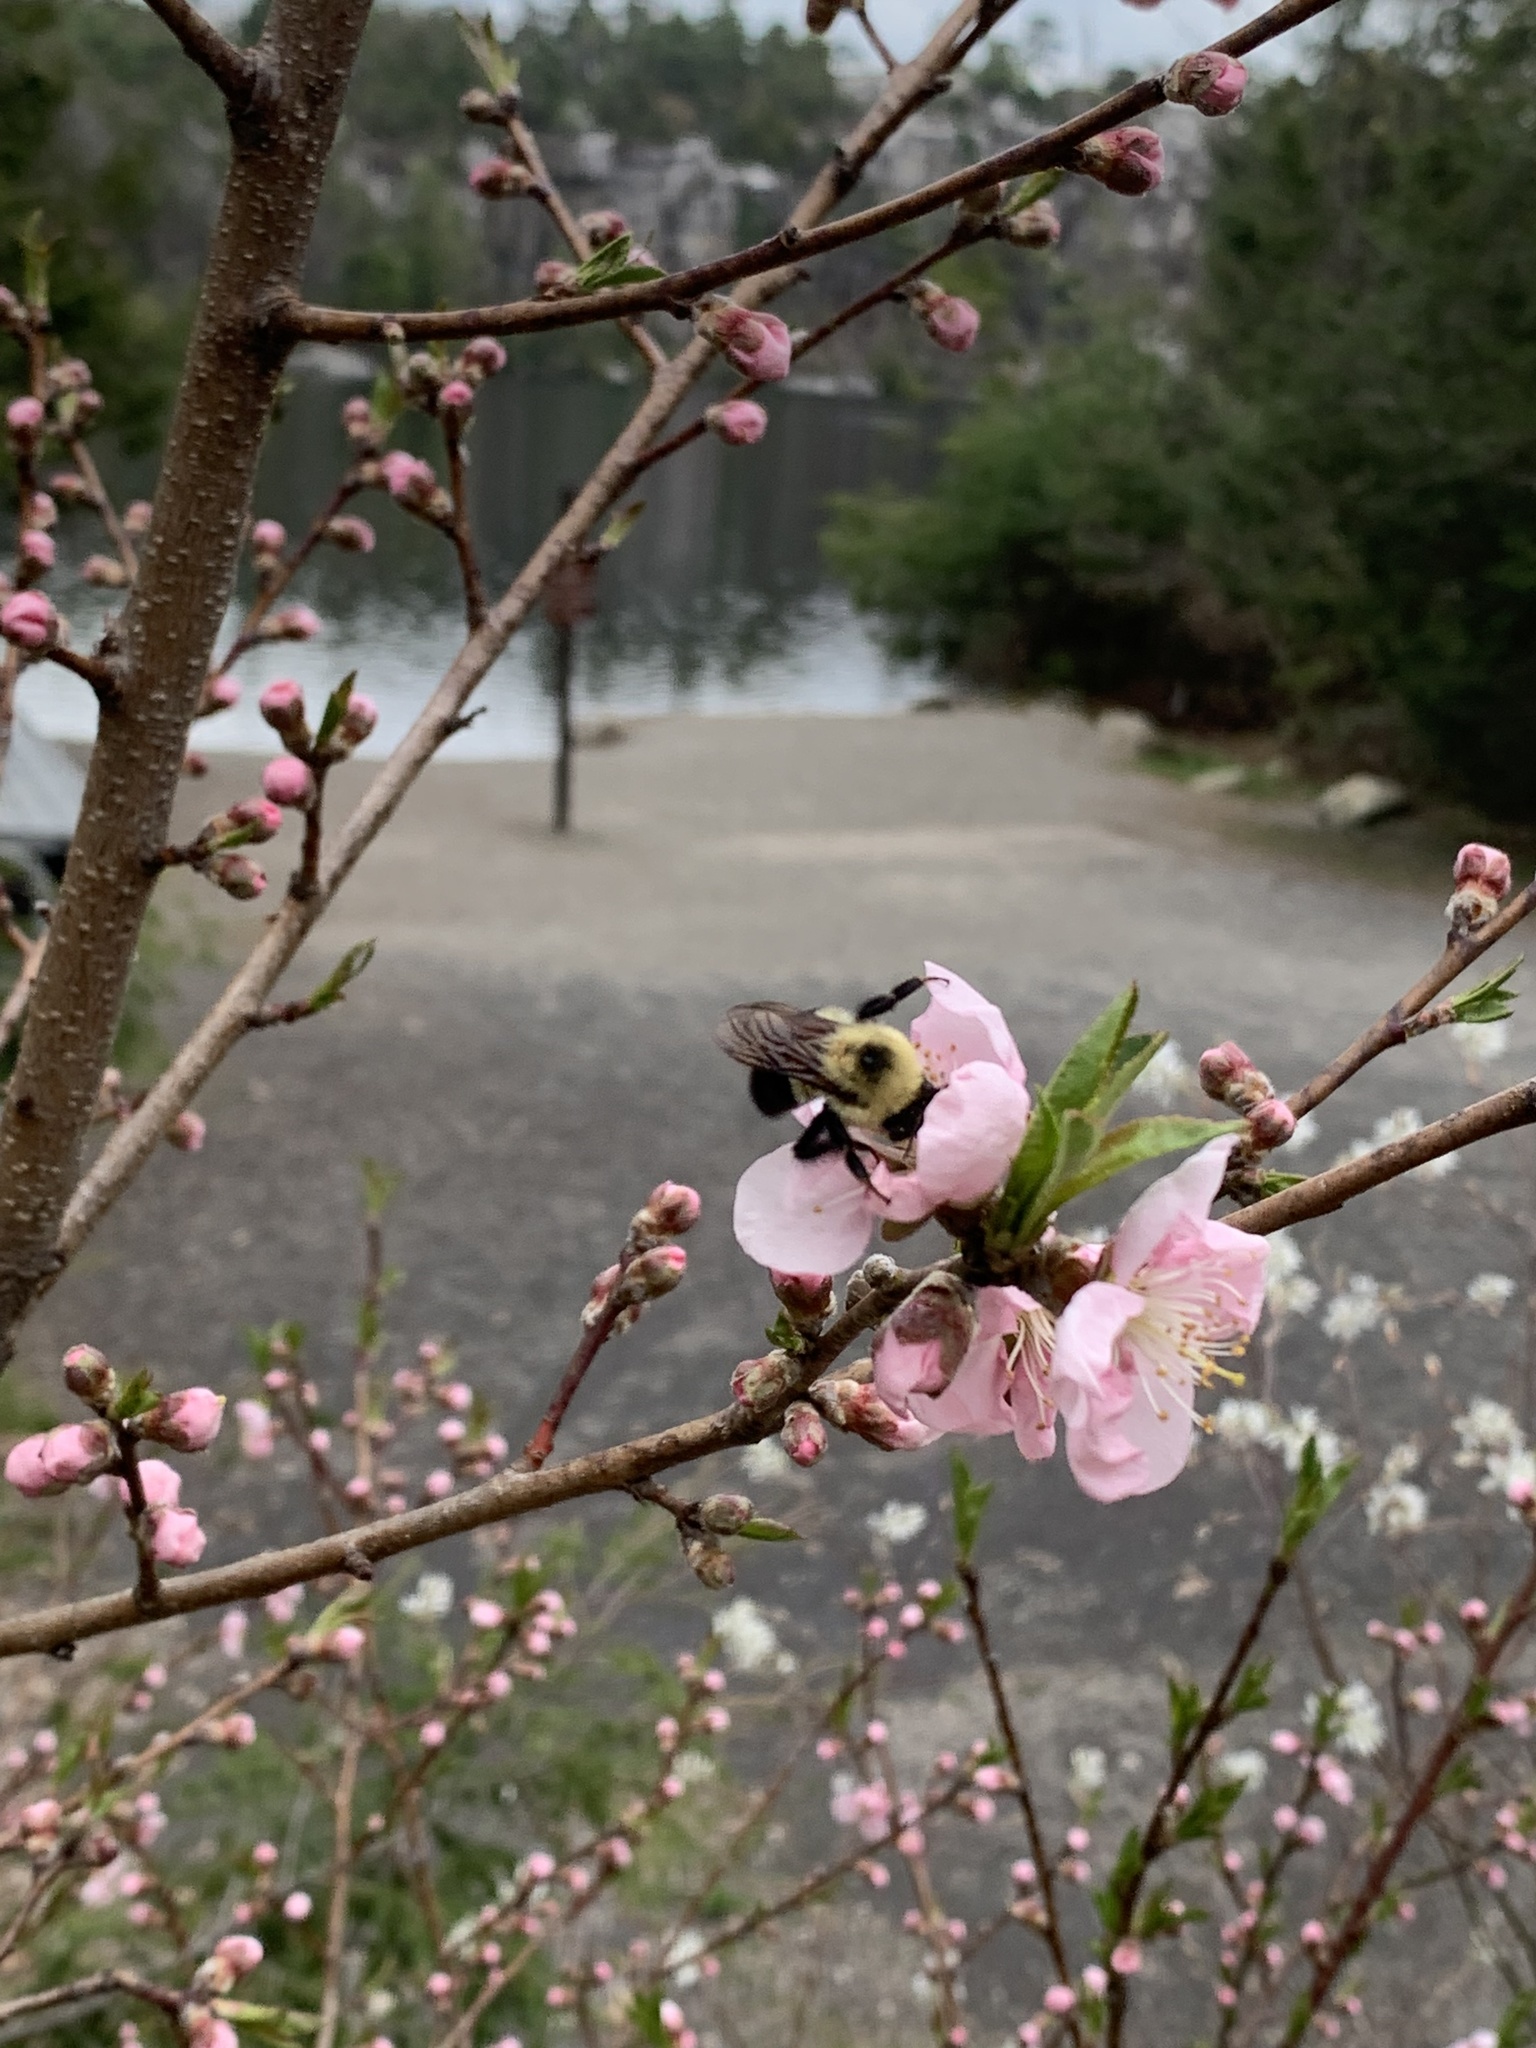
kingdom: Animalia
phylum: Arthropoda
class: Insecta
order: Hymenoptera
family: Apidae
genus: Bombus
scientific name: Bombus bimaculatus
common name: Two-spotted bumble bee
